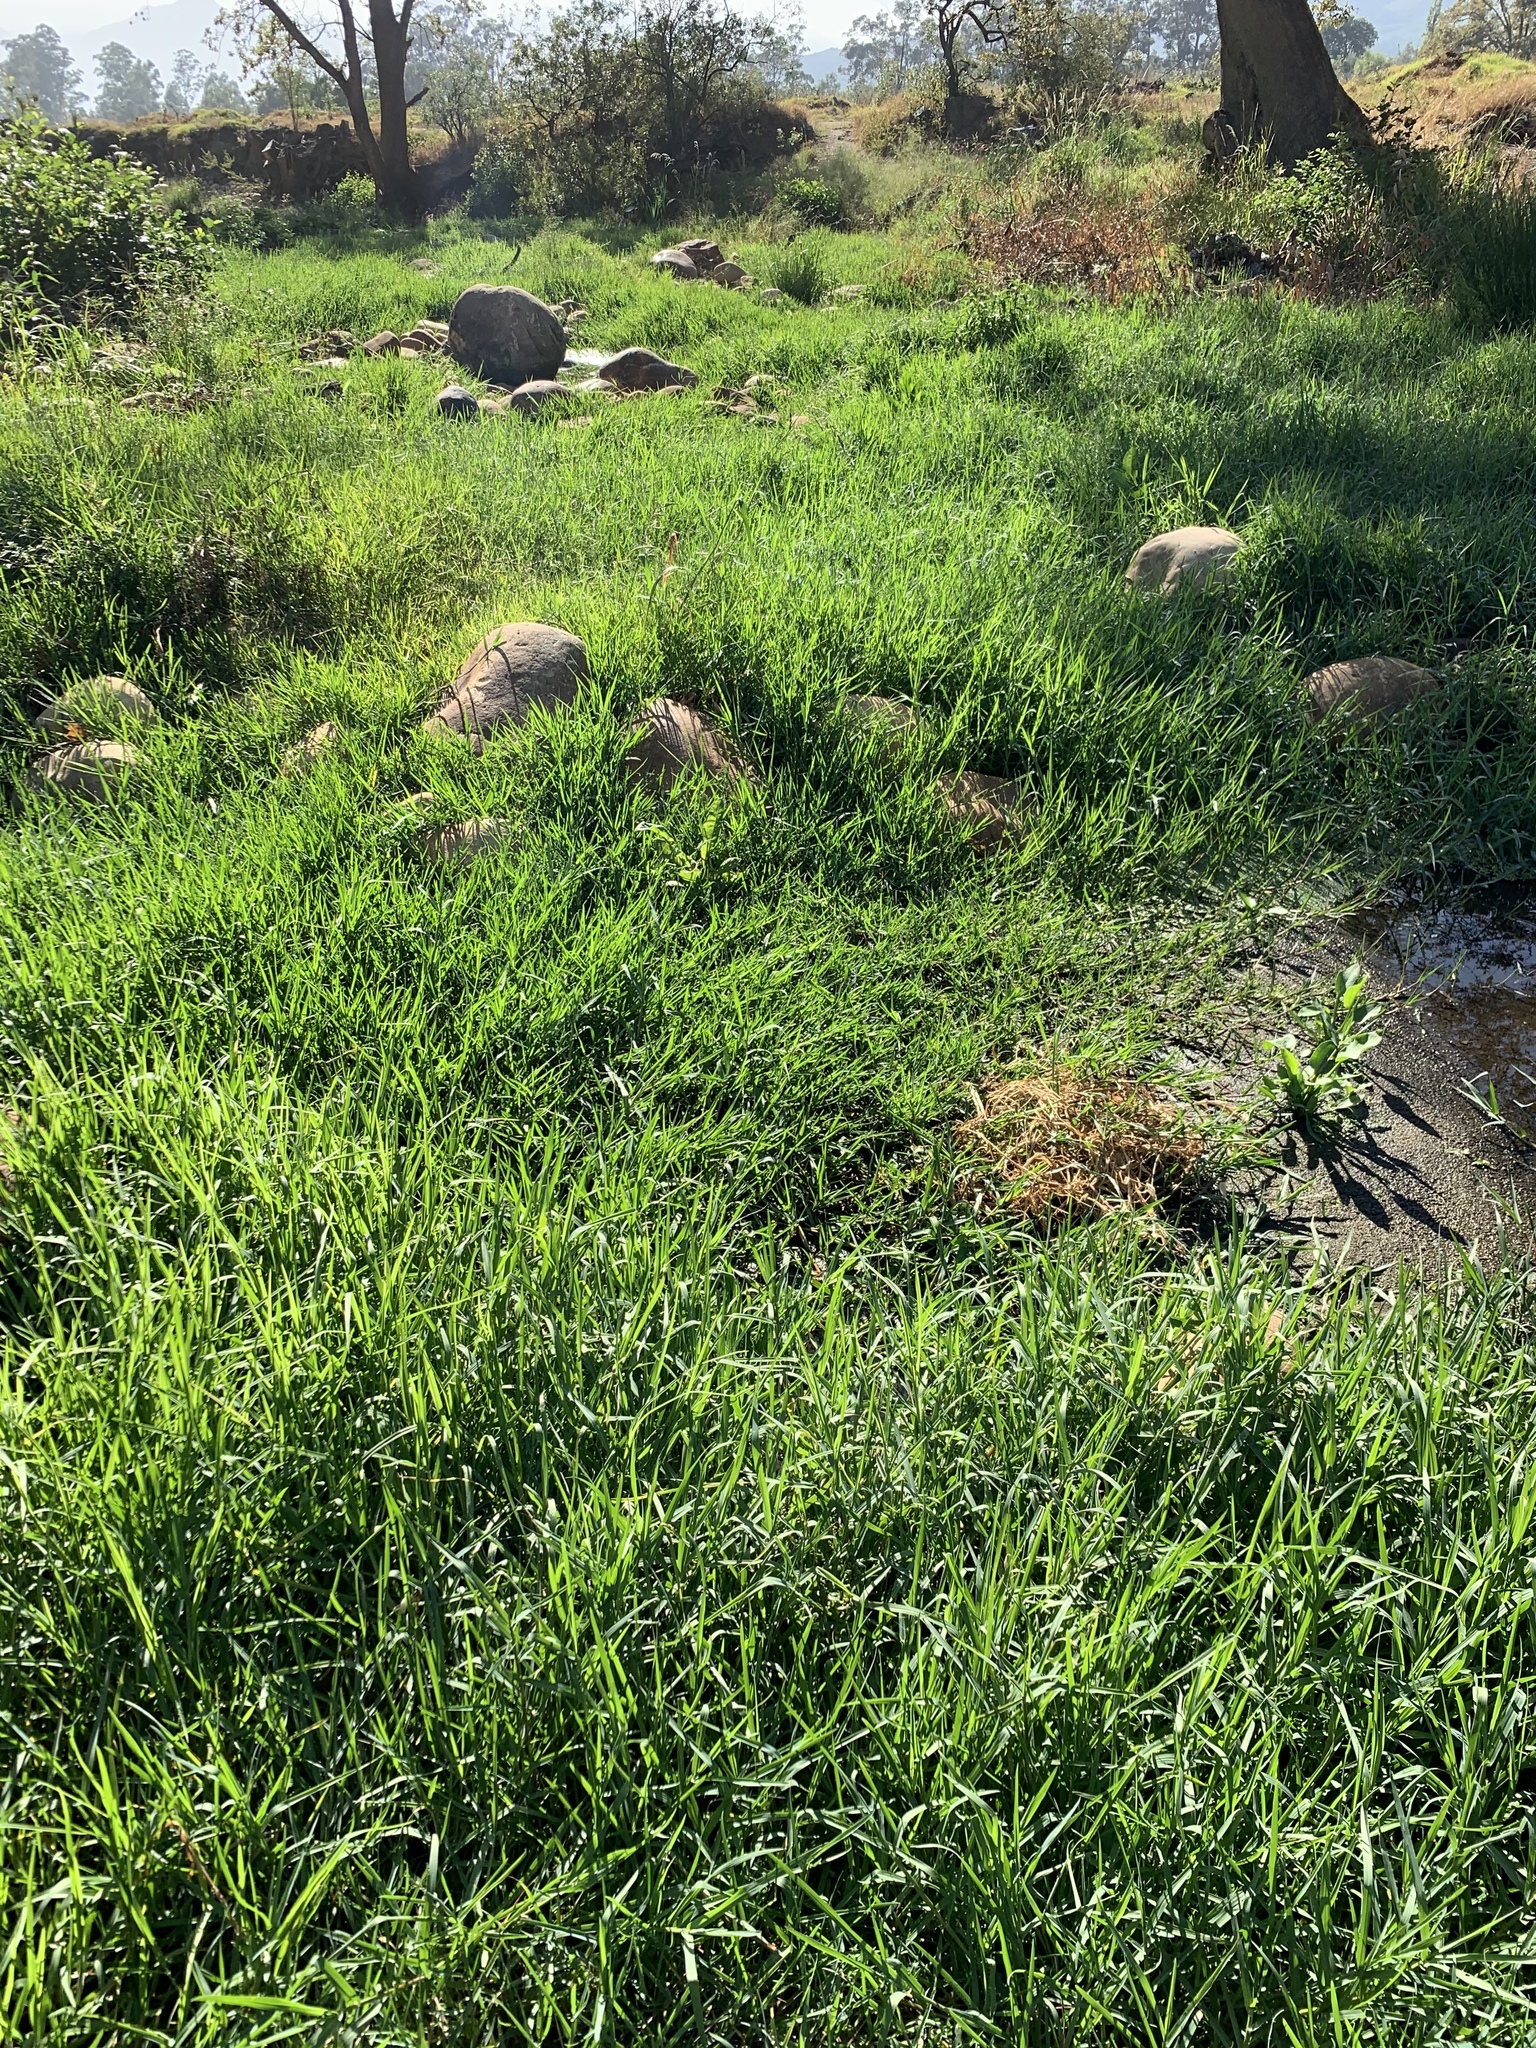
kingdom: Plantae
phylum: Tracheophyta
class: Liliopsida
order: Poales
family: Poaceae
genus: Cenchrus
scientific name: Cenchrus clandestinus
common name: Kikuyugrass
